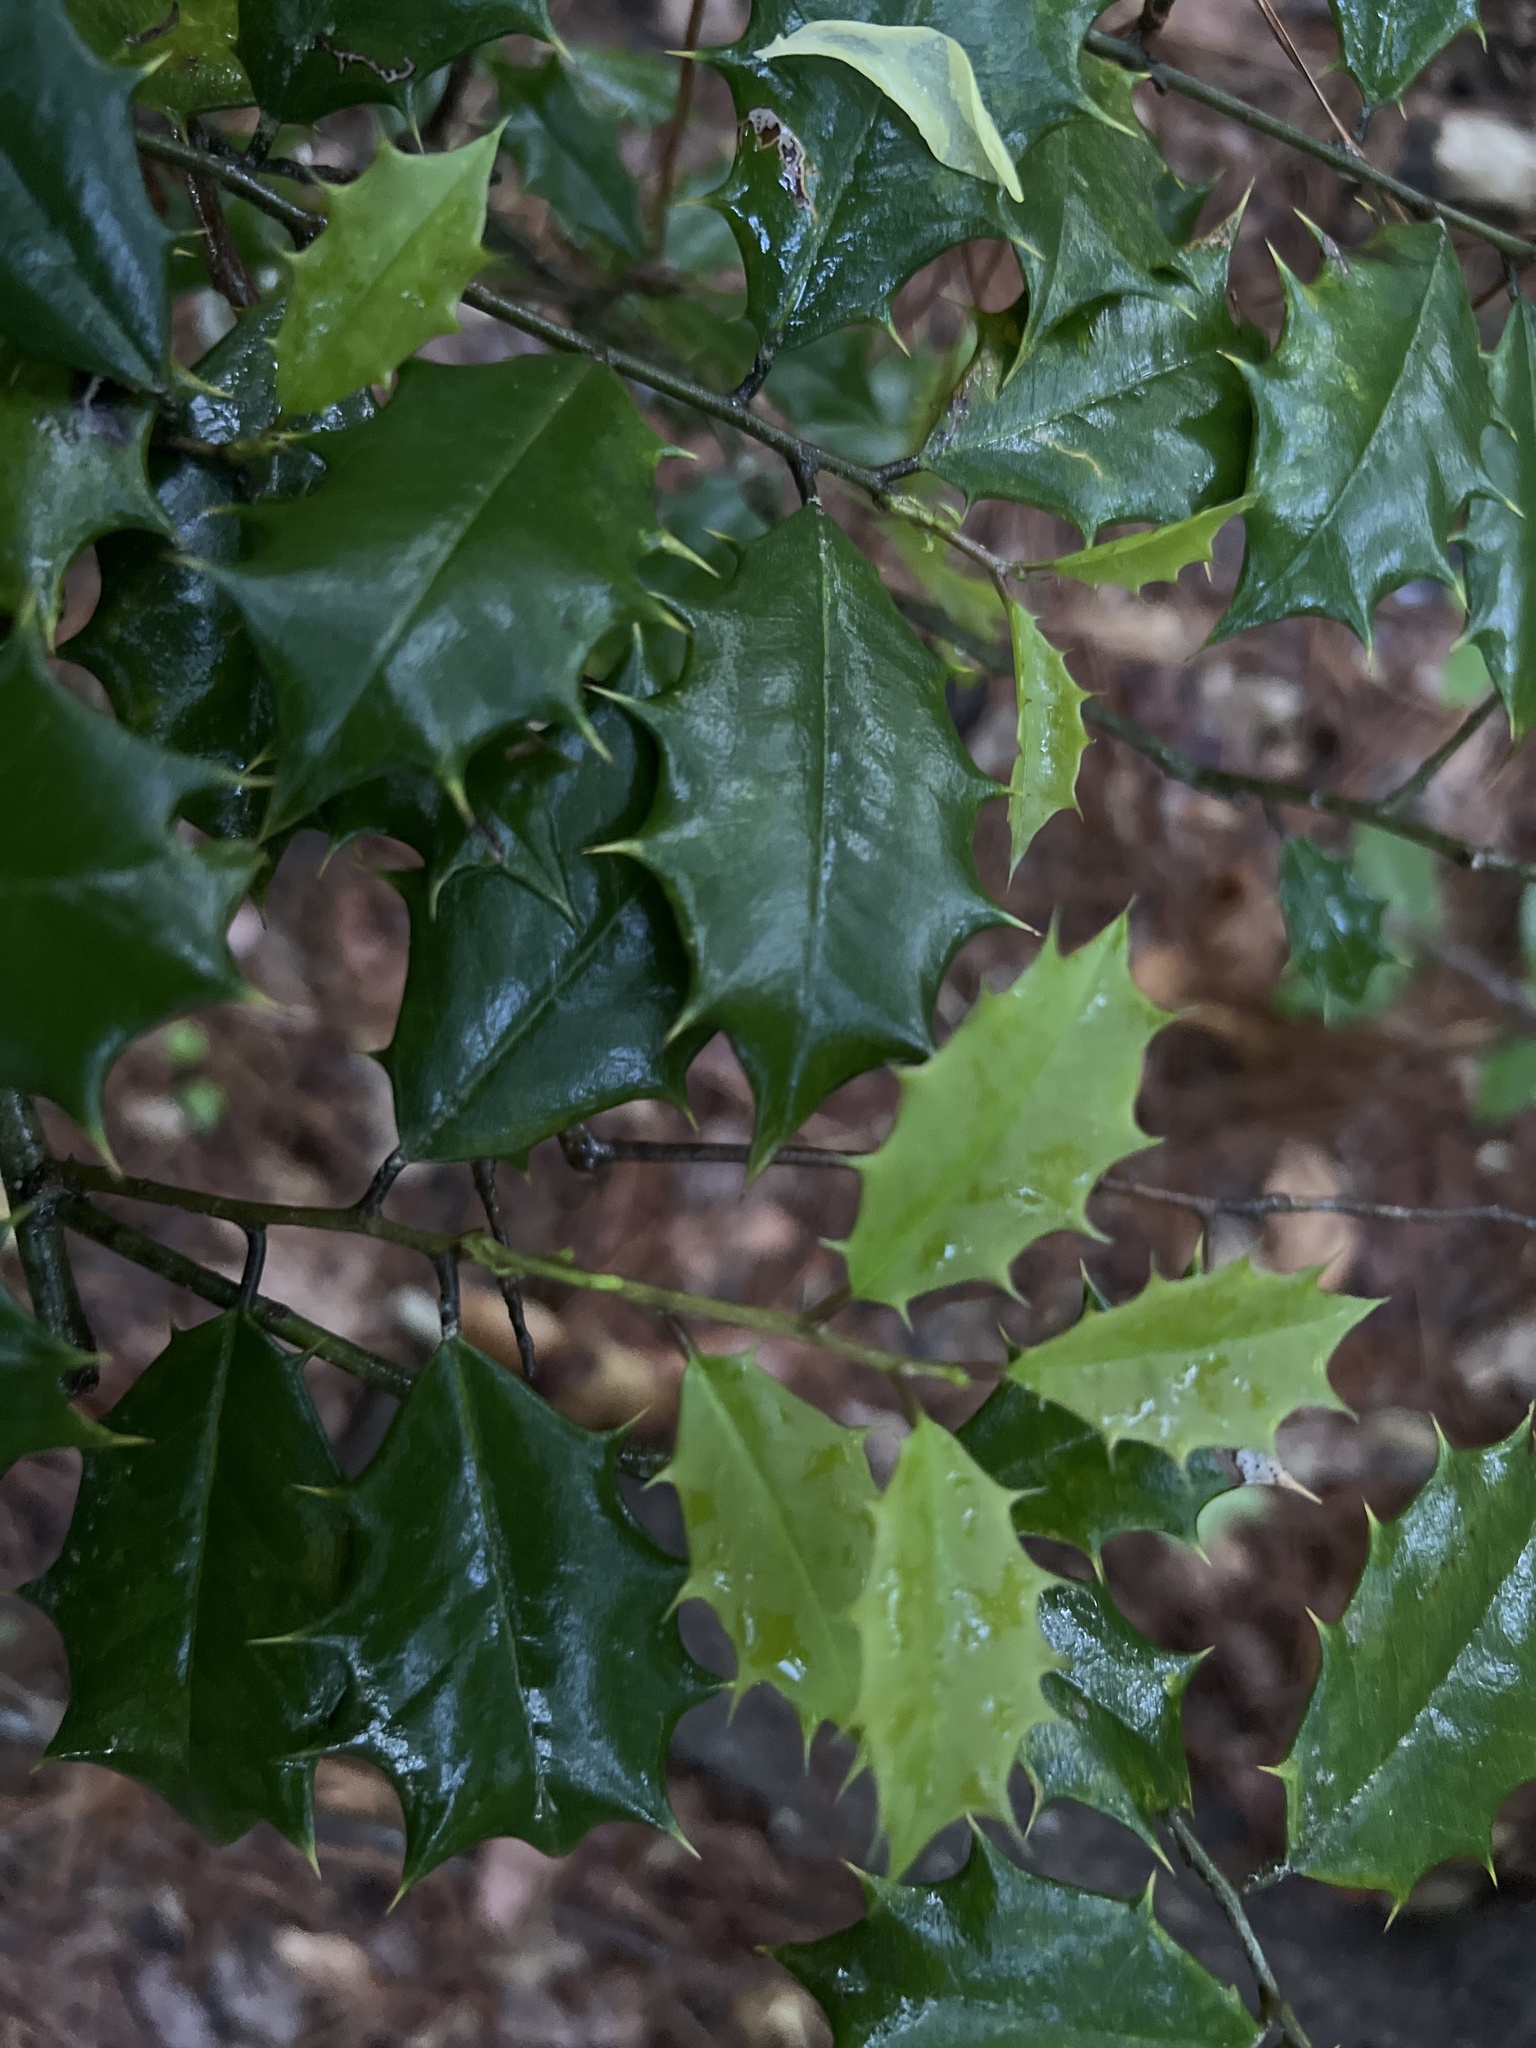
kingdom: Plantae
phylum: Tracheophyta
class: Magnoliopsida
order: Aquifoliales
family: Aquifoliaceae
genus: Ilex
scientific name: Ilex opaca
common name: American holly
